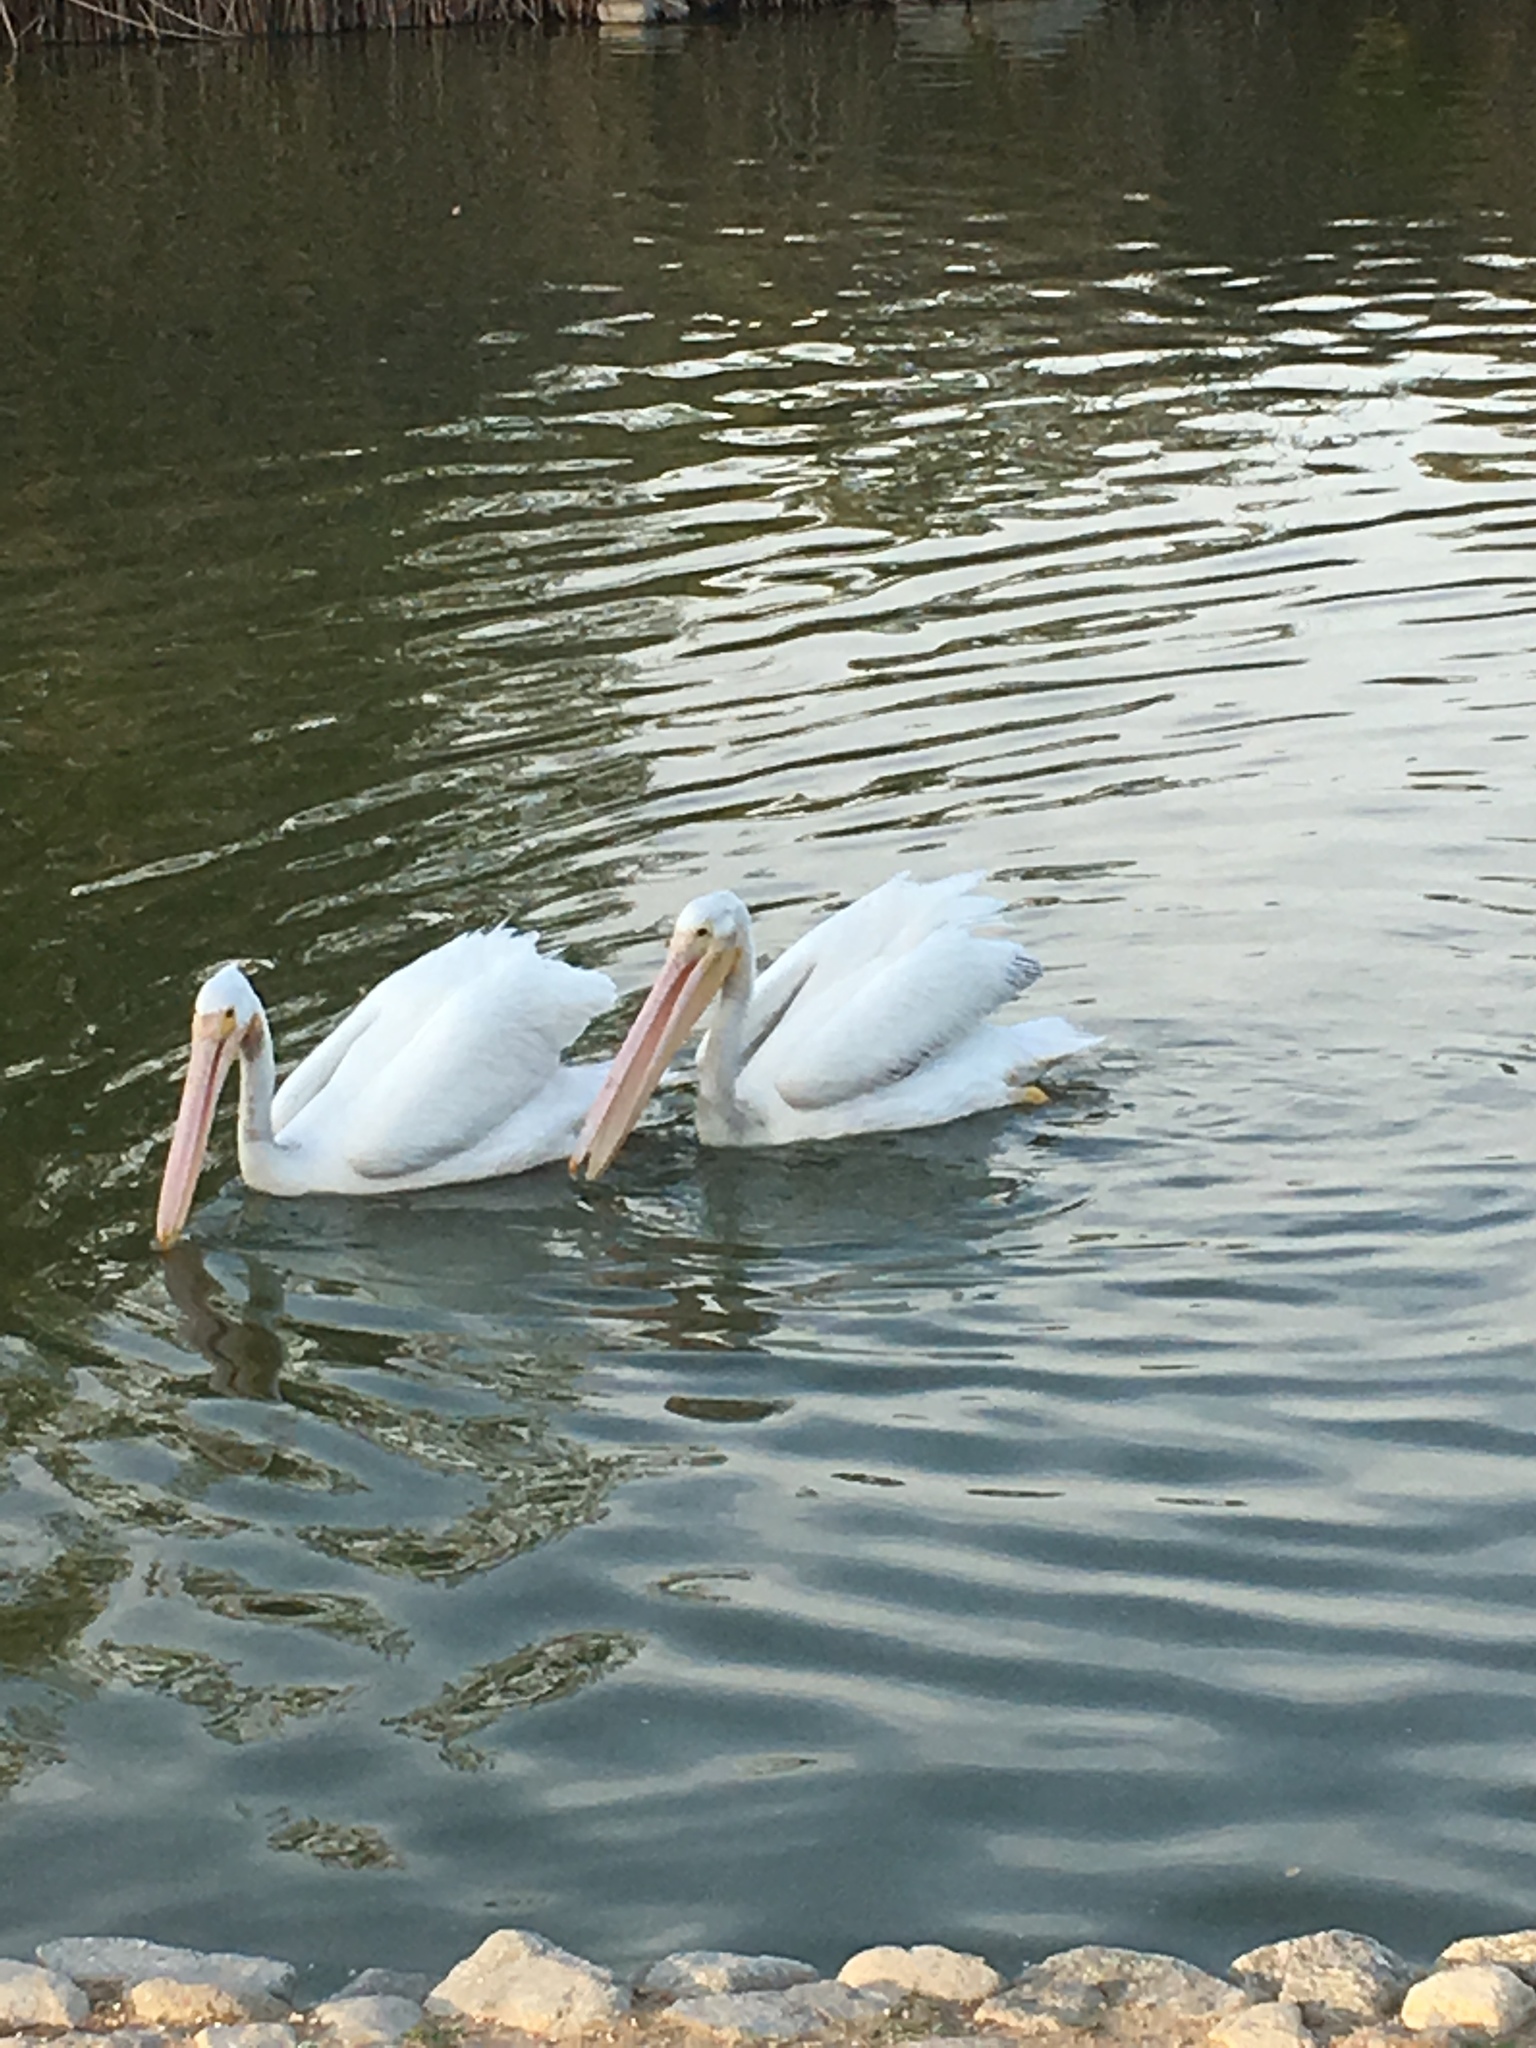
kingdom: Animalia
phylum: Chordata
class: Aves
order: Pelecaniformes
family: Pelecanidae
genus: Pelecanus
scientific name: Pelecanus erythrorhynchos
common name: American white pelican
